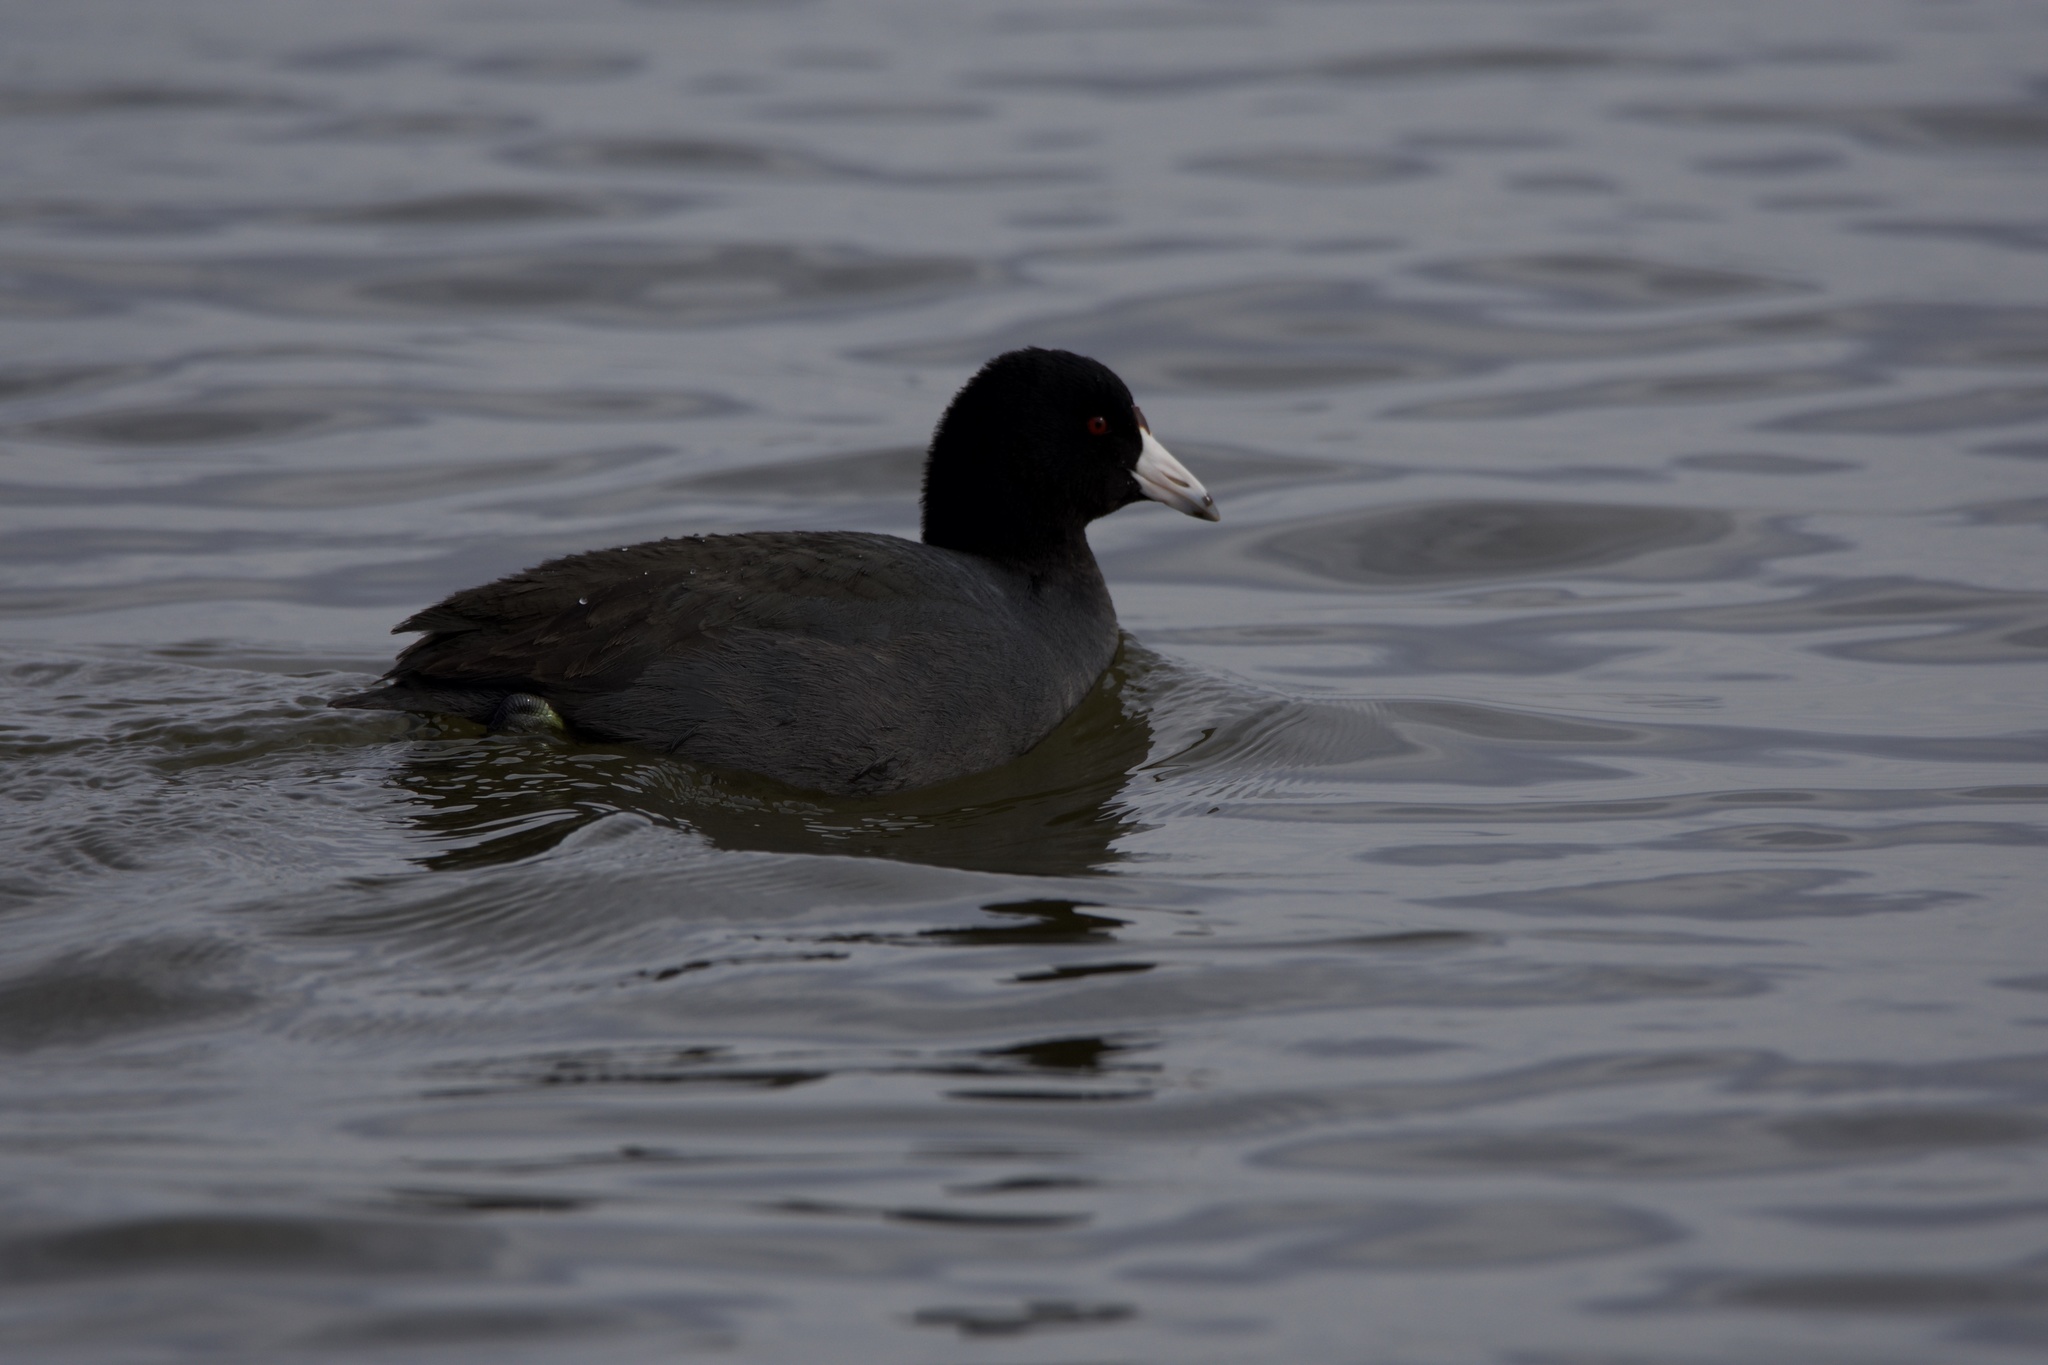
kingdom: Animalia
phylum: Chordata
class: Aves
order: Gruiformes
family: Rallidae
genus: Fulica
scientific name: Fulica americana
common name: American coot
